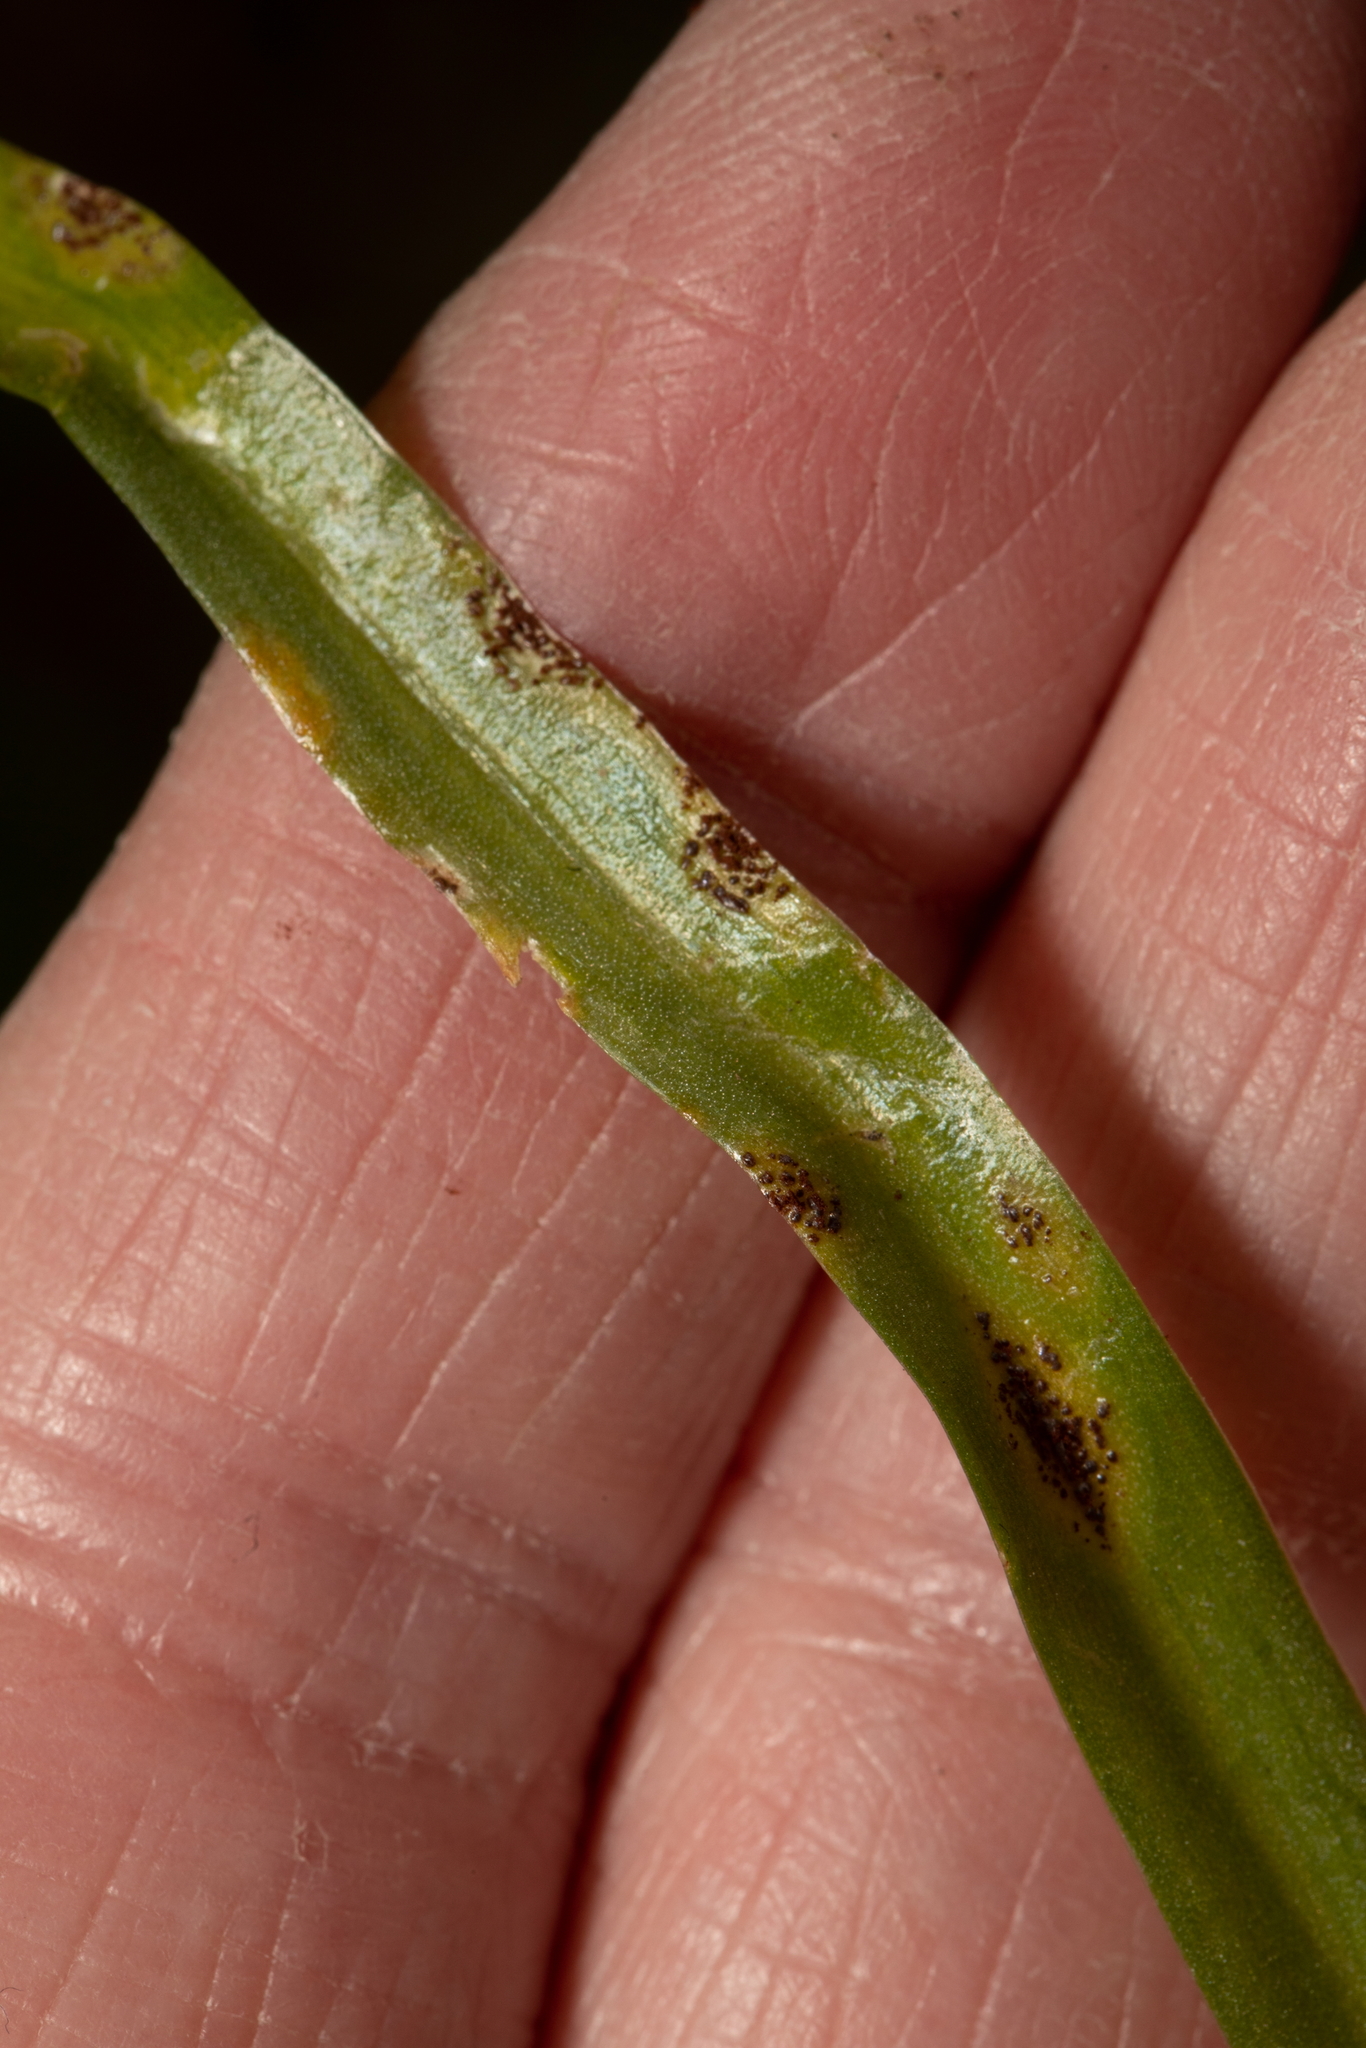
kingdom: Fungi
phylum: Basidiomycota
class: Pucciniomycetes
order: Pucciniales
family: Pucciniaceae
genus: Uromyces
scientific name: Uromyces hyacinthi
